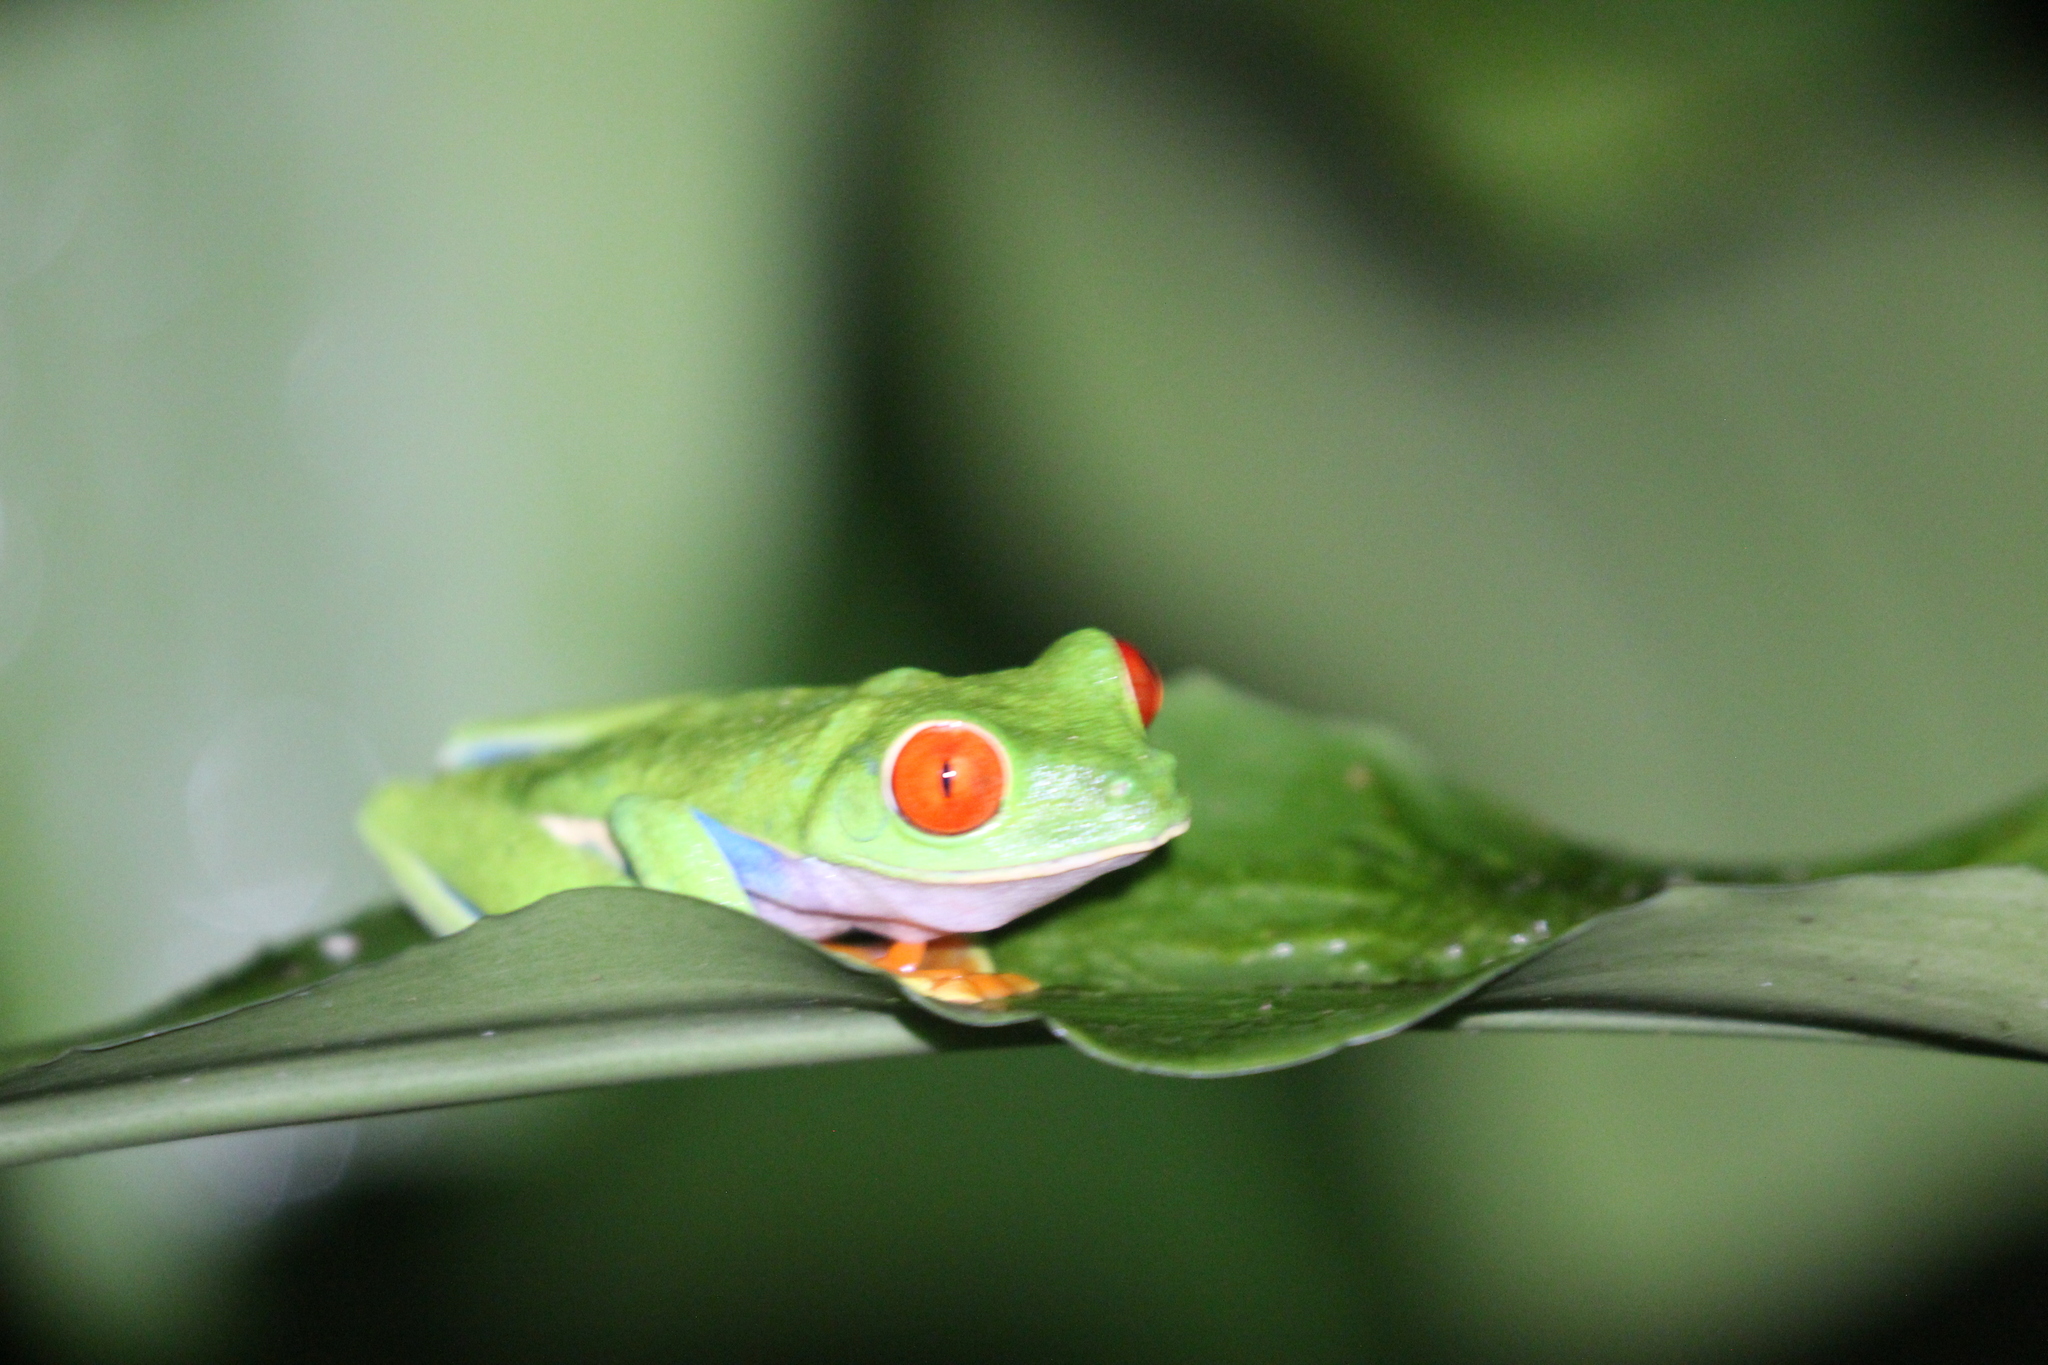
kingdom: Animalia
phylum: Chordata
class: Amphibia
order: Anura
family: Phyllomedusidae
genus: Agalychnis
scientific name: Agalychnis callidryas
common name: Red-eyed treefrog
